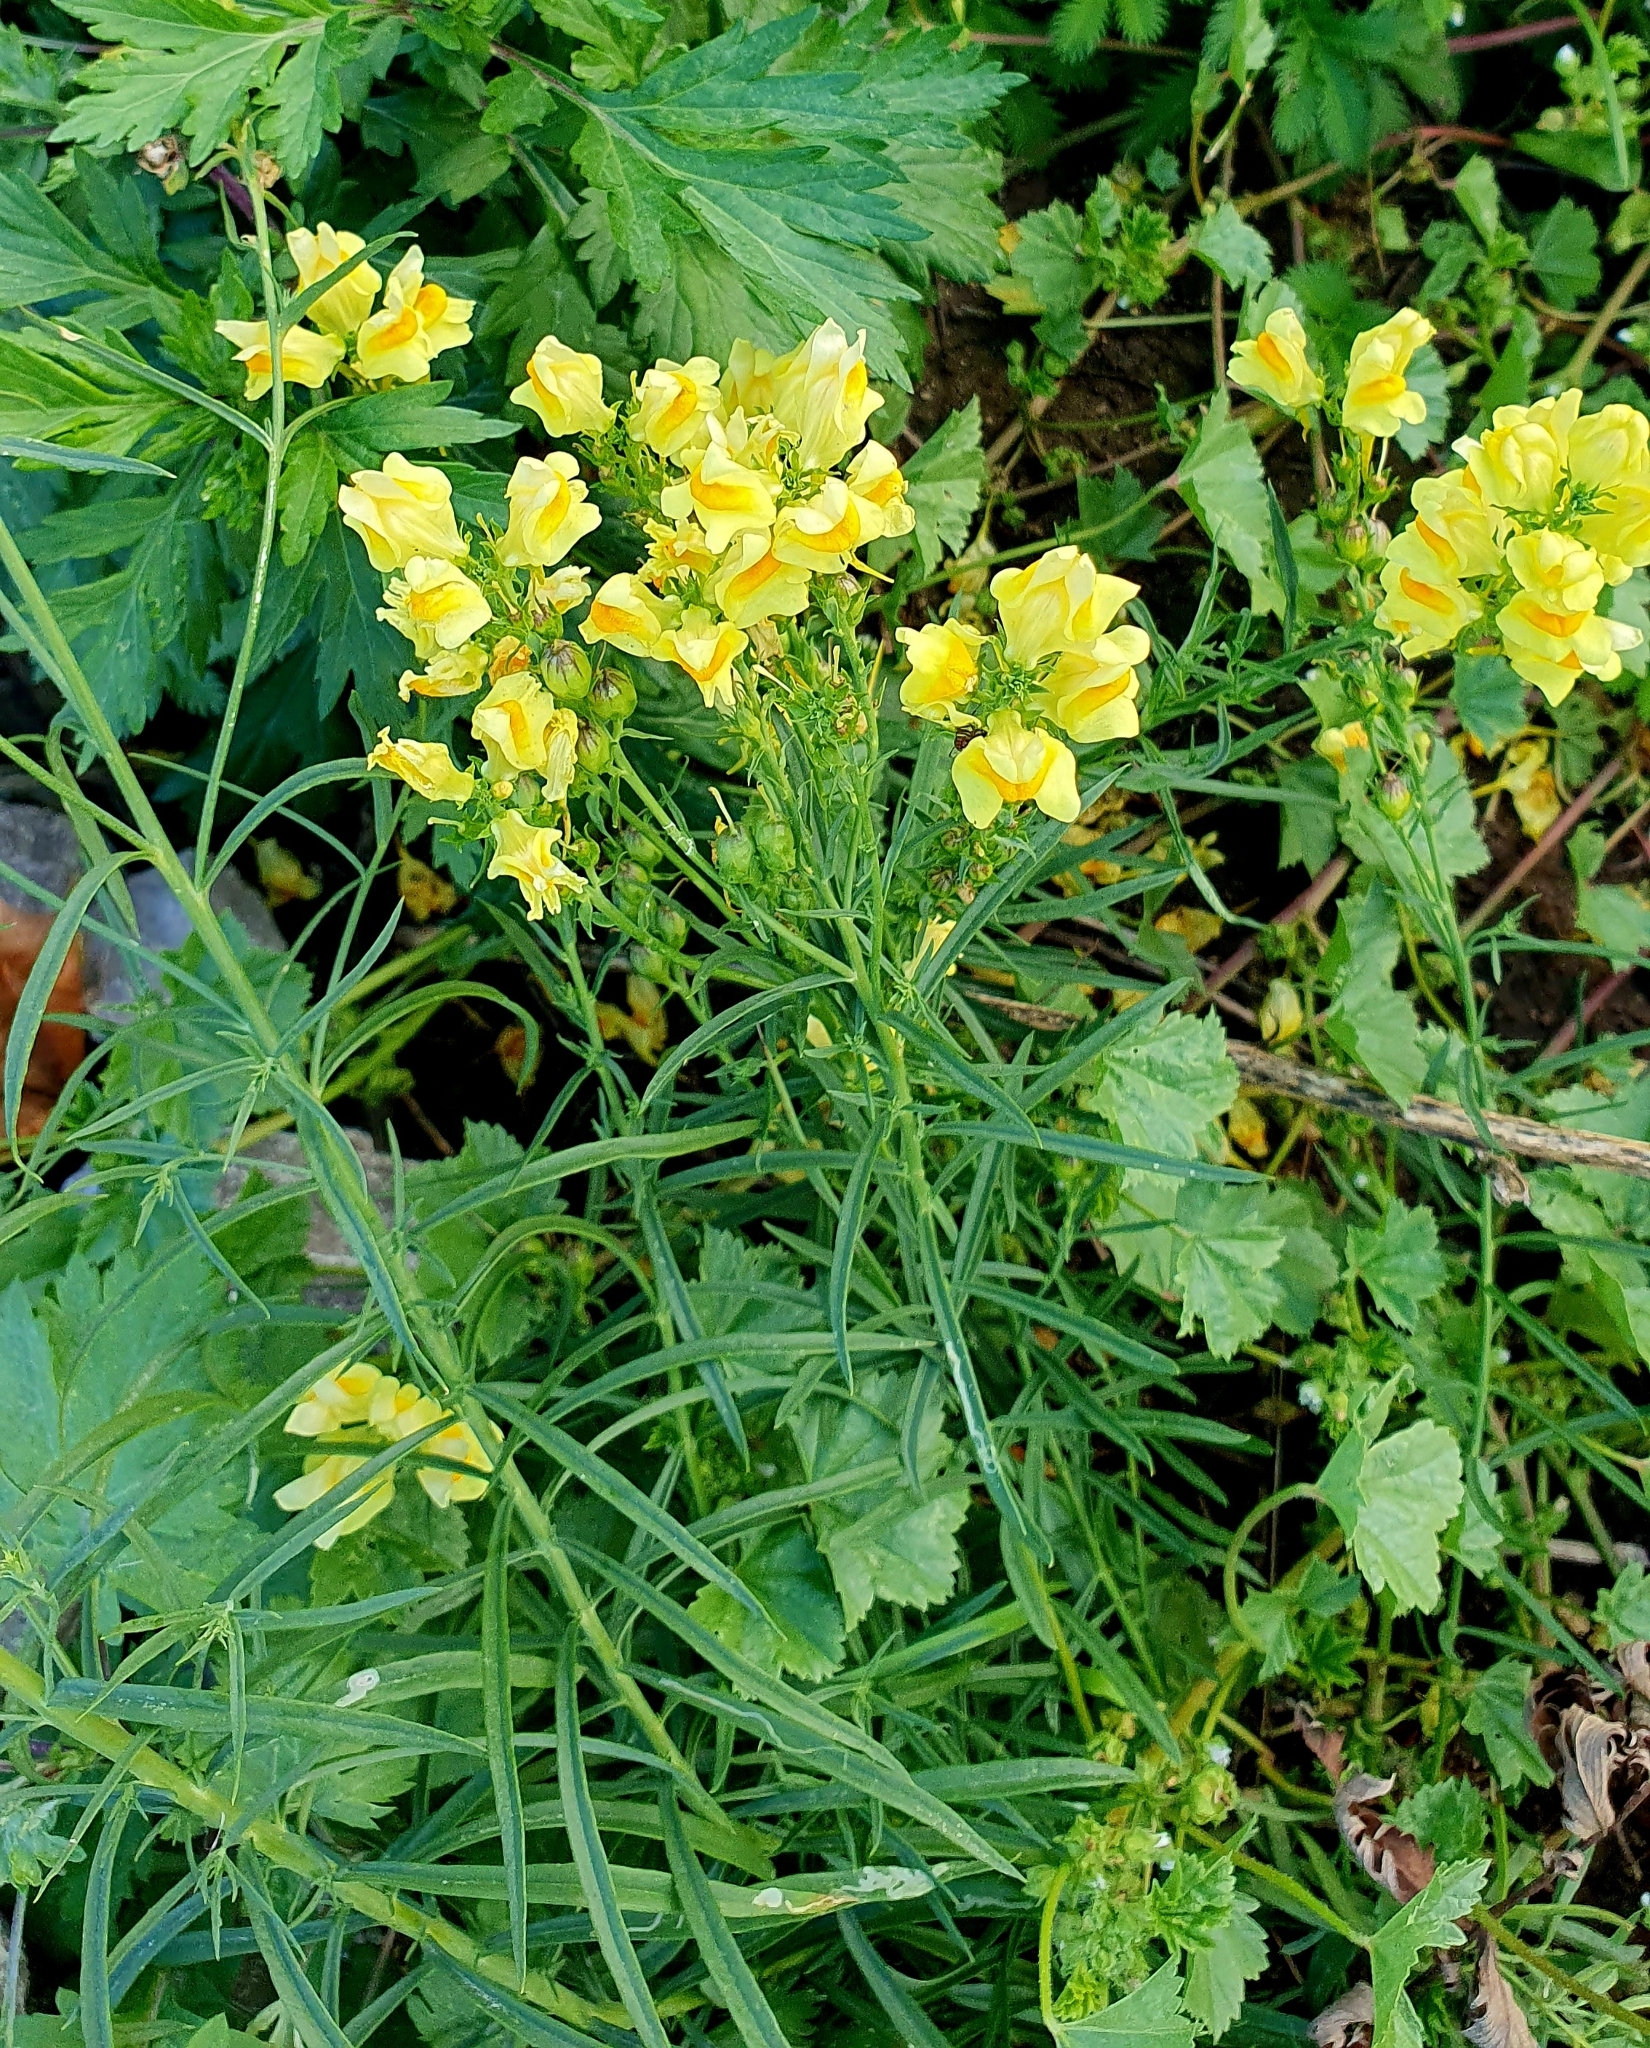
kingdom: Plantae
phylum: Tracheophyta
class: Magnoliopsida
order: Lamiales
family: Plantaginaceae
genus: Linaria
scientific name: Linaria vulgaris
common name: Butter and eggs
